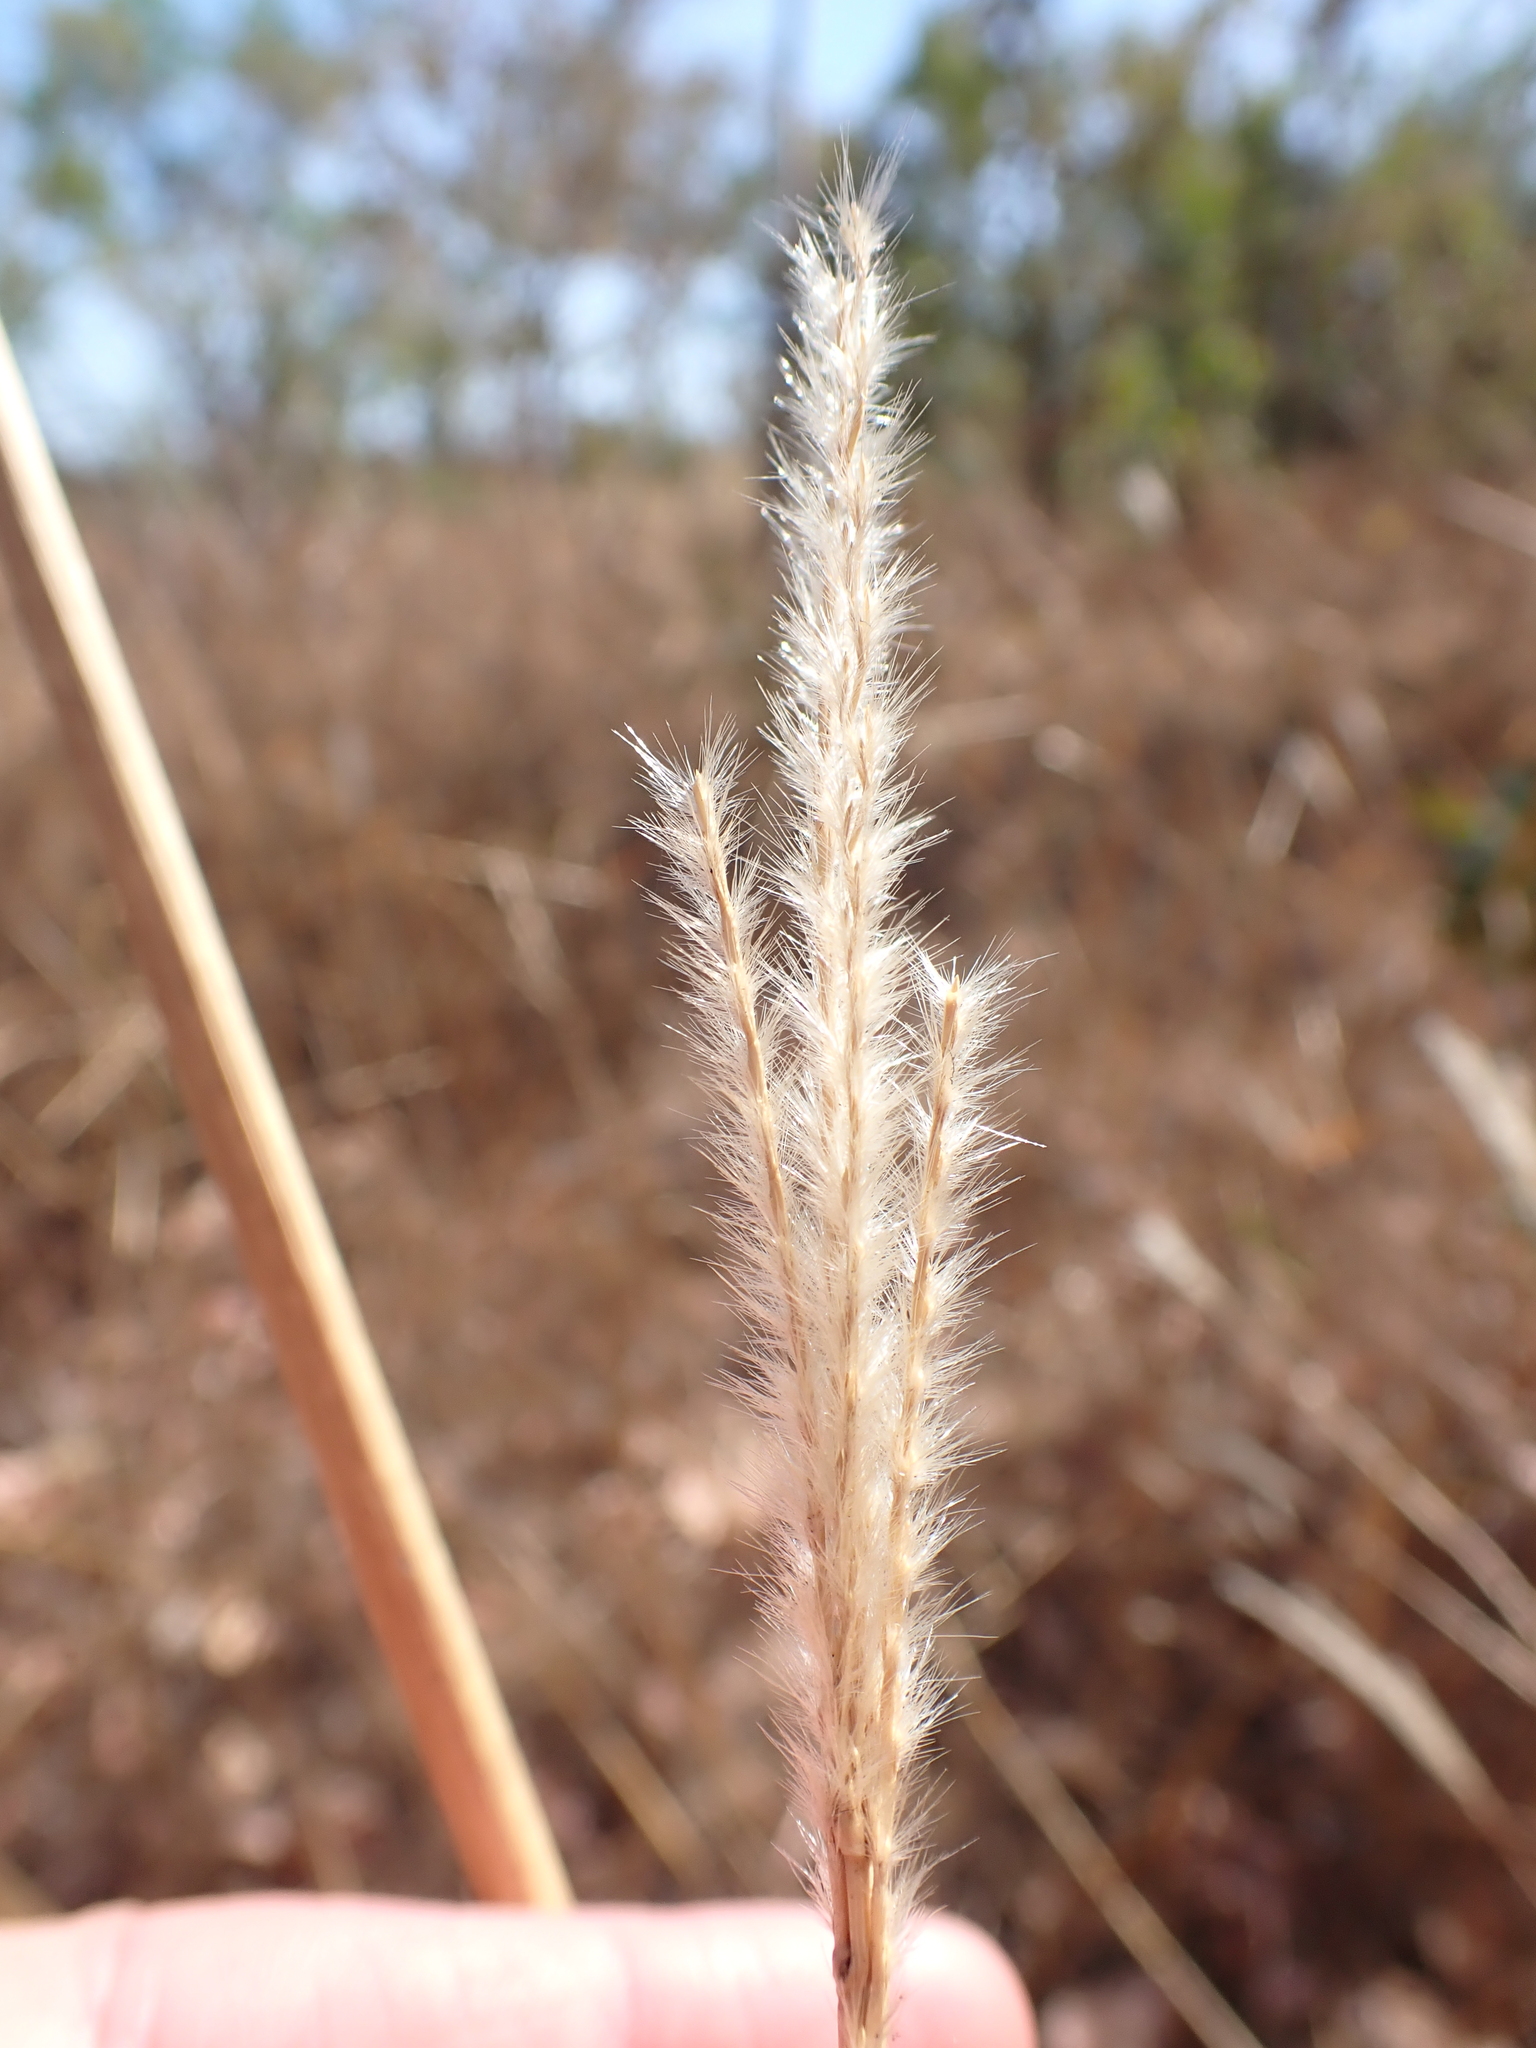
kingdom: Plantae
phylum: Tracheophyta
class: Liliopsida
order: Poales
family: Poaceae
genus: Pseudopogonatherum
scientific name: Pseudopogonatherum contortum
